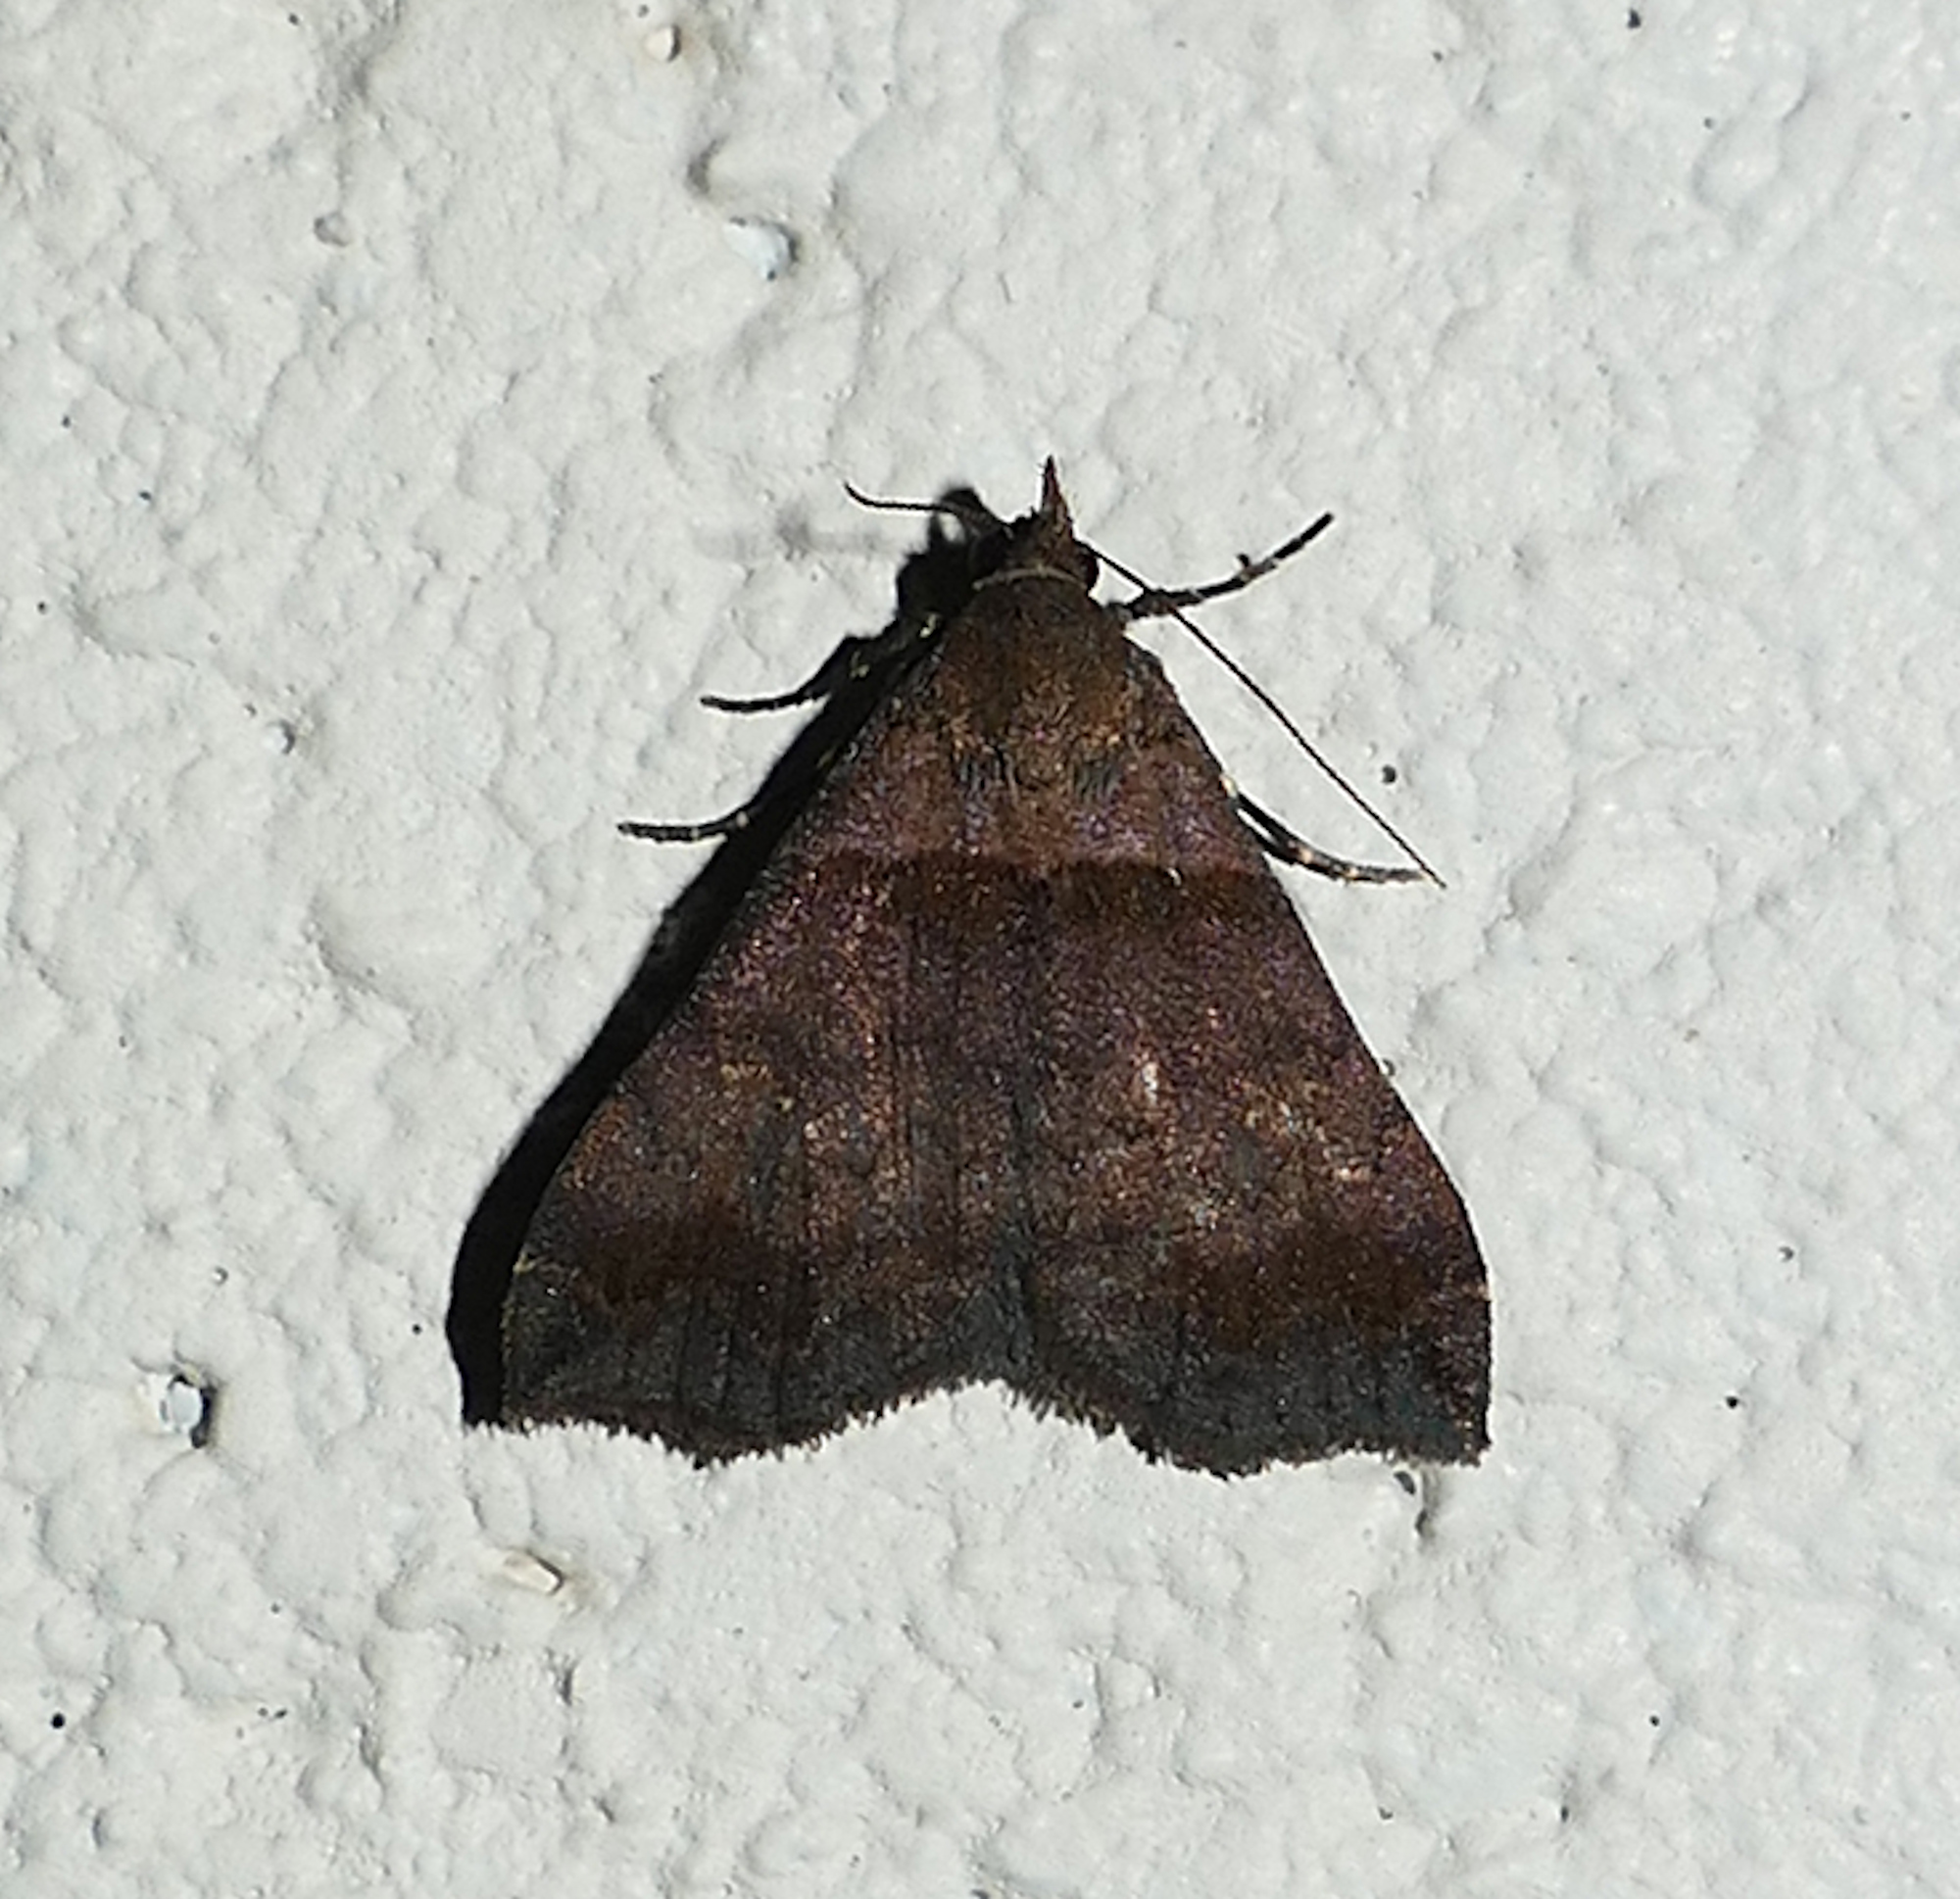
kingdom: Animalia
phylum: Arthropoda
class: Insecta
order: Lepidoptera
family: Erebidae
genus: Lascoria
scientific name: Lascoria ambigualis
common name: Ambiguous moth
